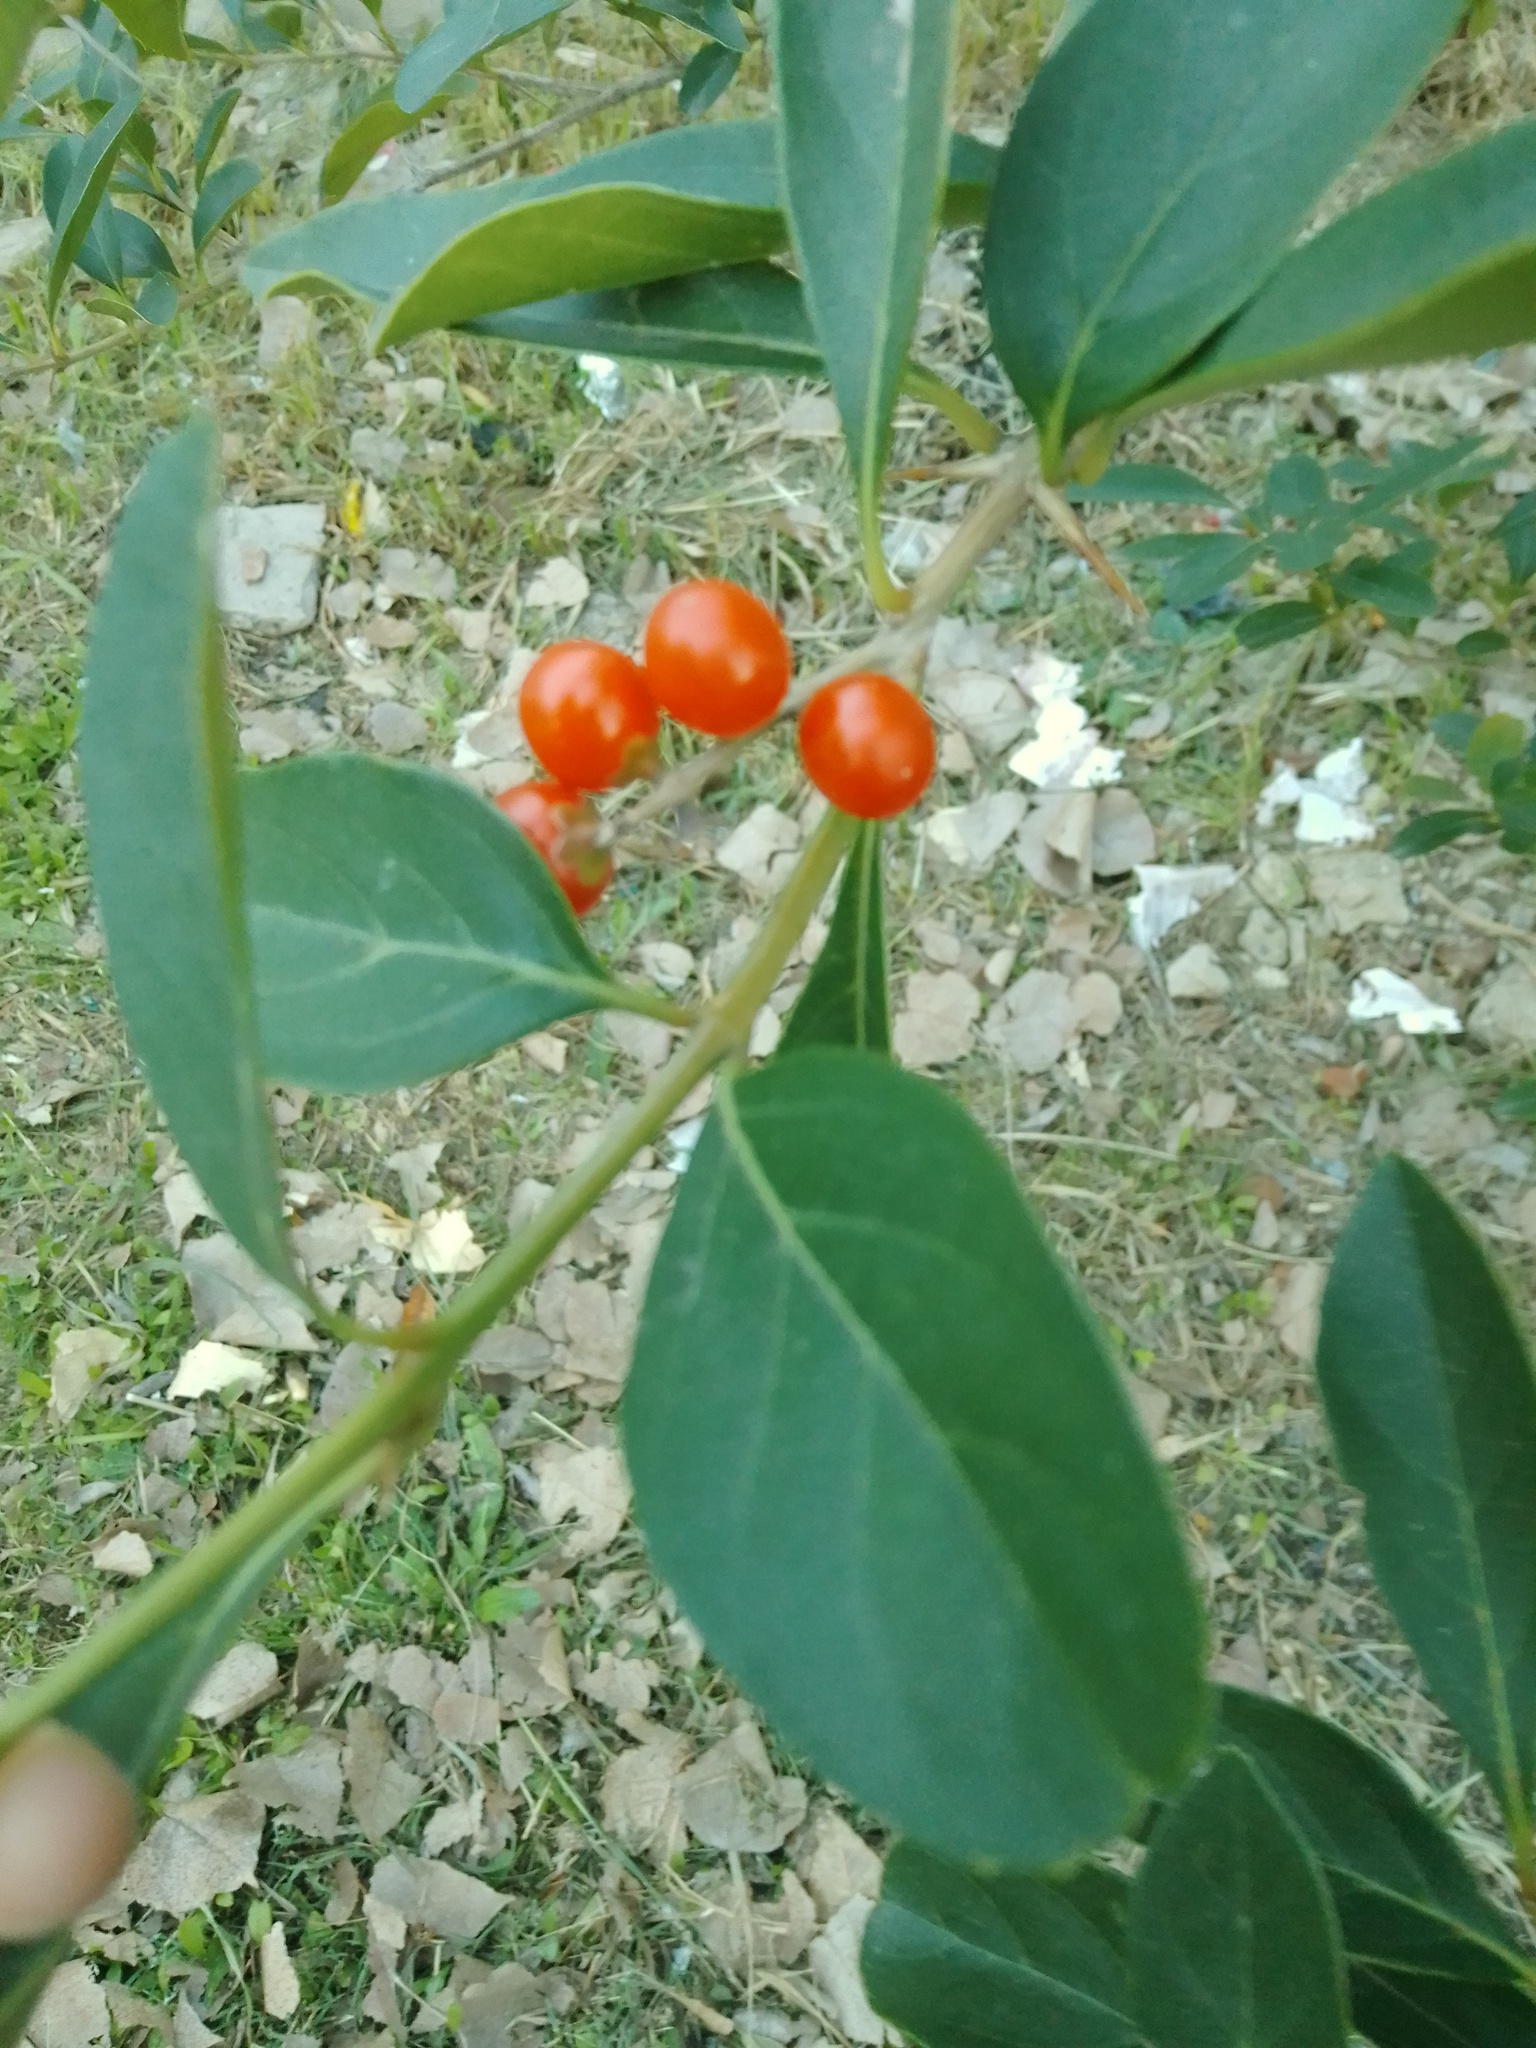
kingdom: Plantae
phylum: Tracheophyta
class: Magnoliopsida
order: Lamiales
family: Verbenaceae
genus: Citharexylum
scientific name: Citharexylum montevidense
